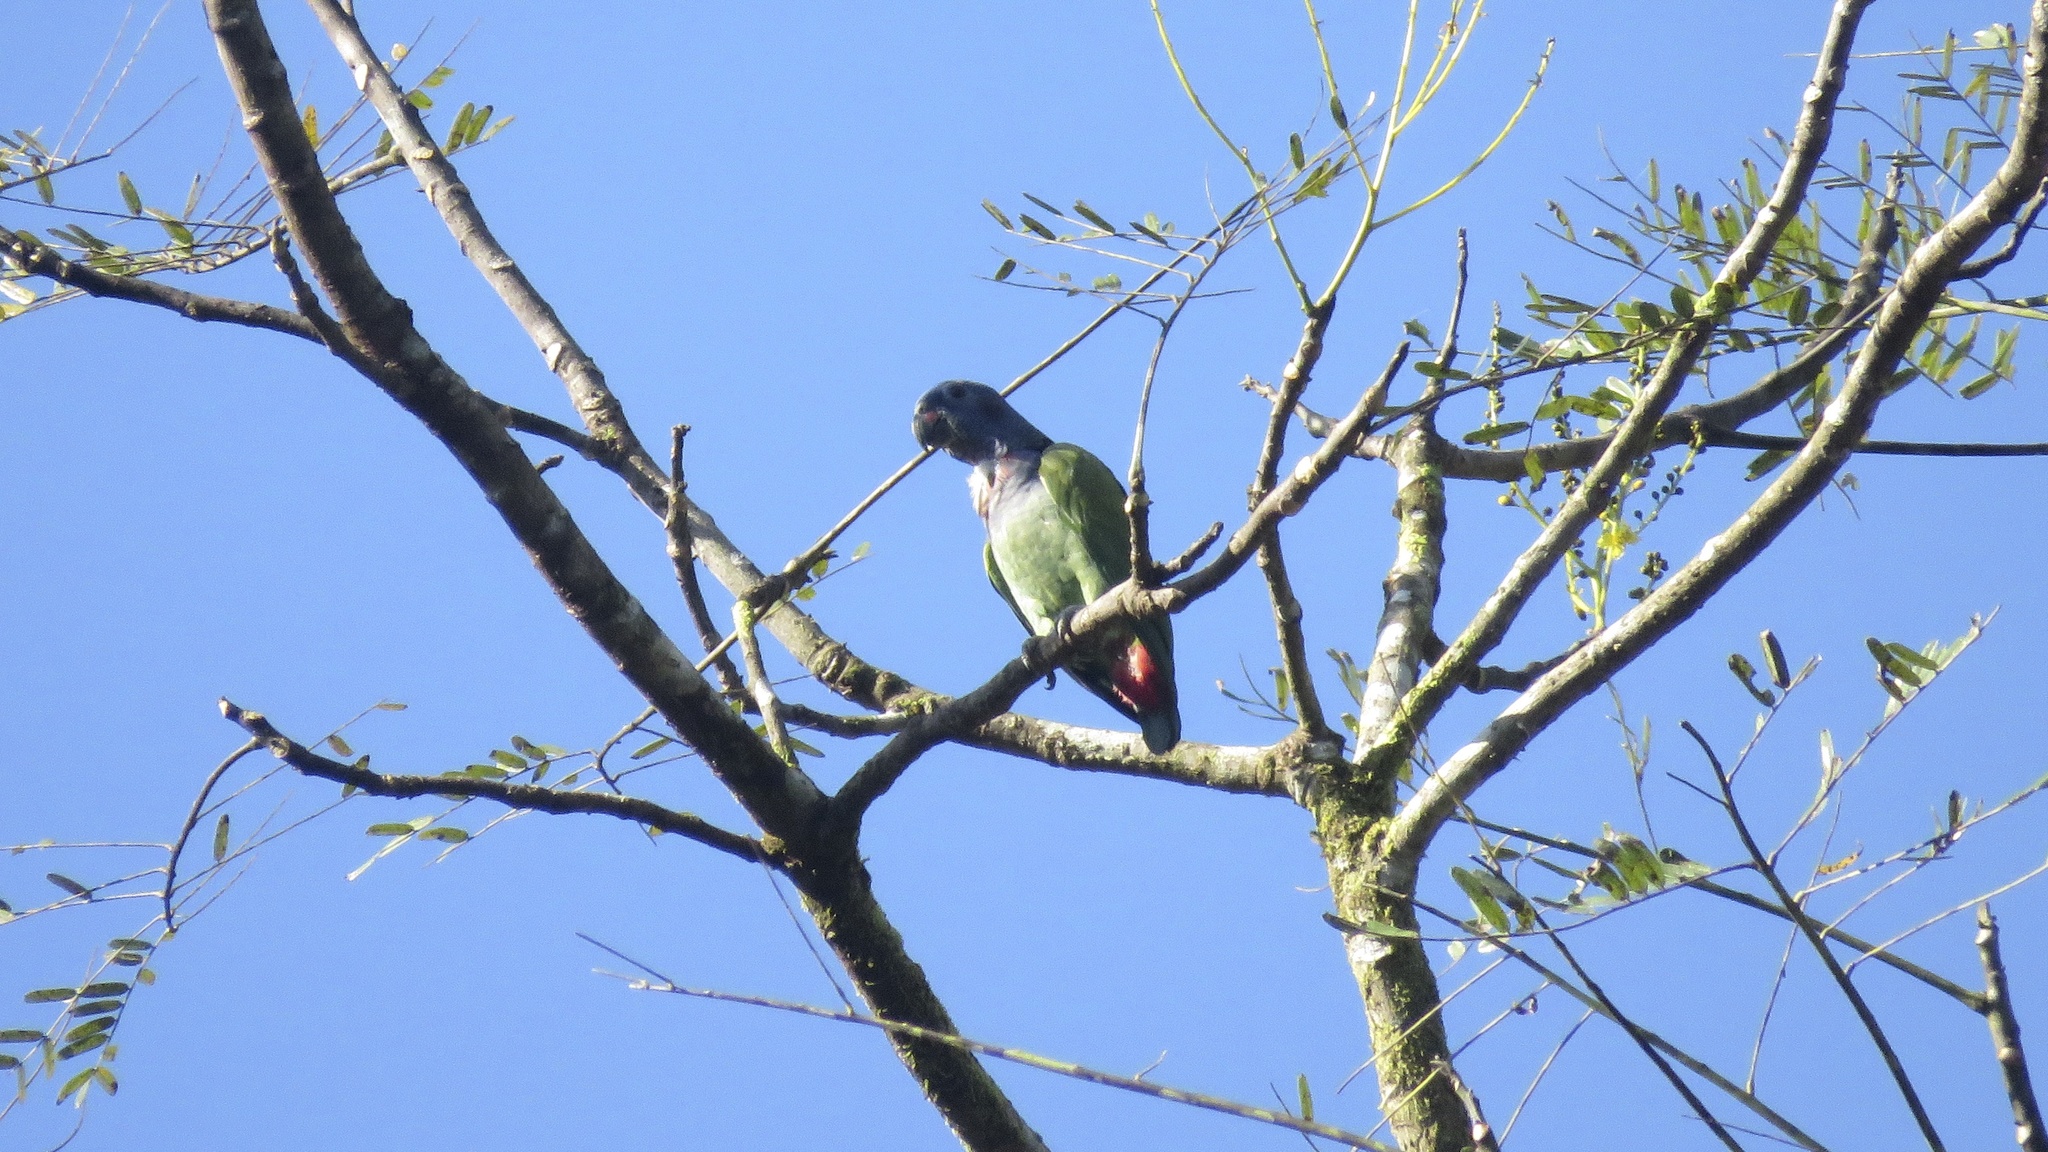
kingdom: Animalia
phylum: Chordata
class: Aves
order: Psittaciformes
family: Psittacidae
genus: Pionus
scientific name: Pionus menstruus
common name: Blue-headed parrot
